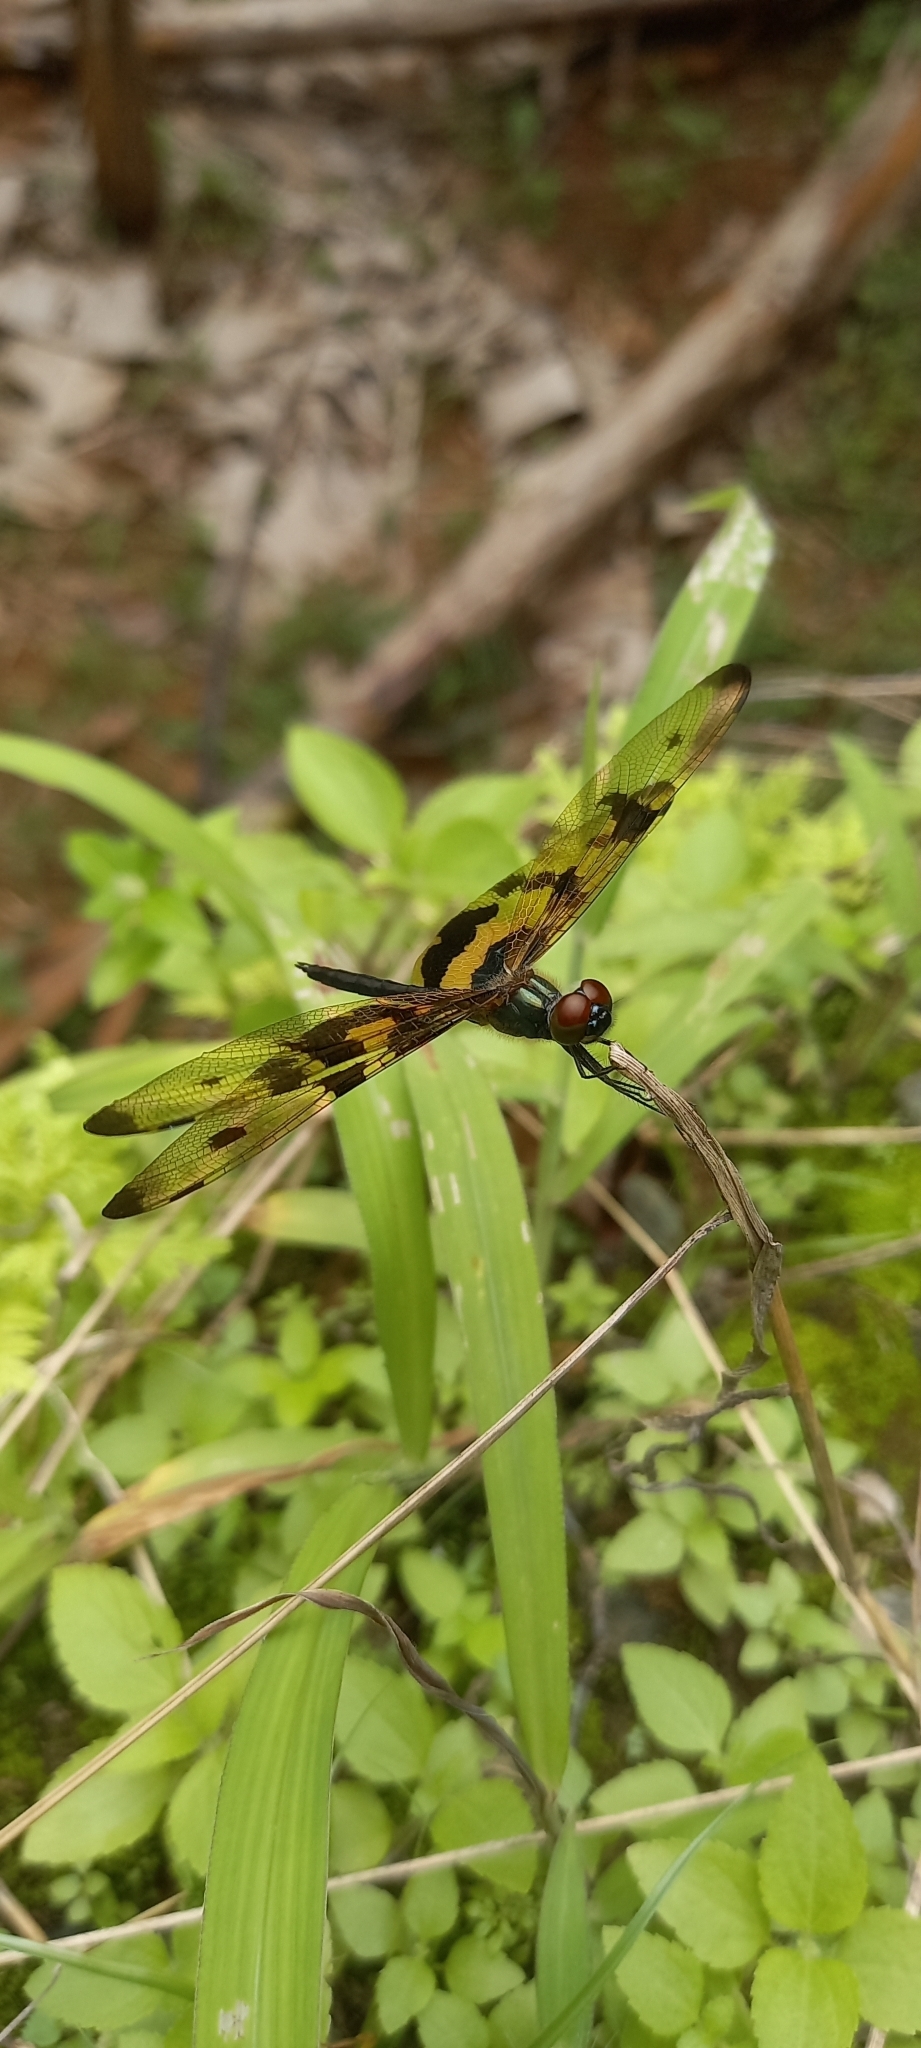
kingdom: Animalia
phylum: Arthropoda
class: Insecta
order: Odonata
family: Libellulidae
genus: Rhyothemis
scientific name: Rhyothemis variegata
